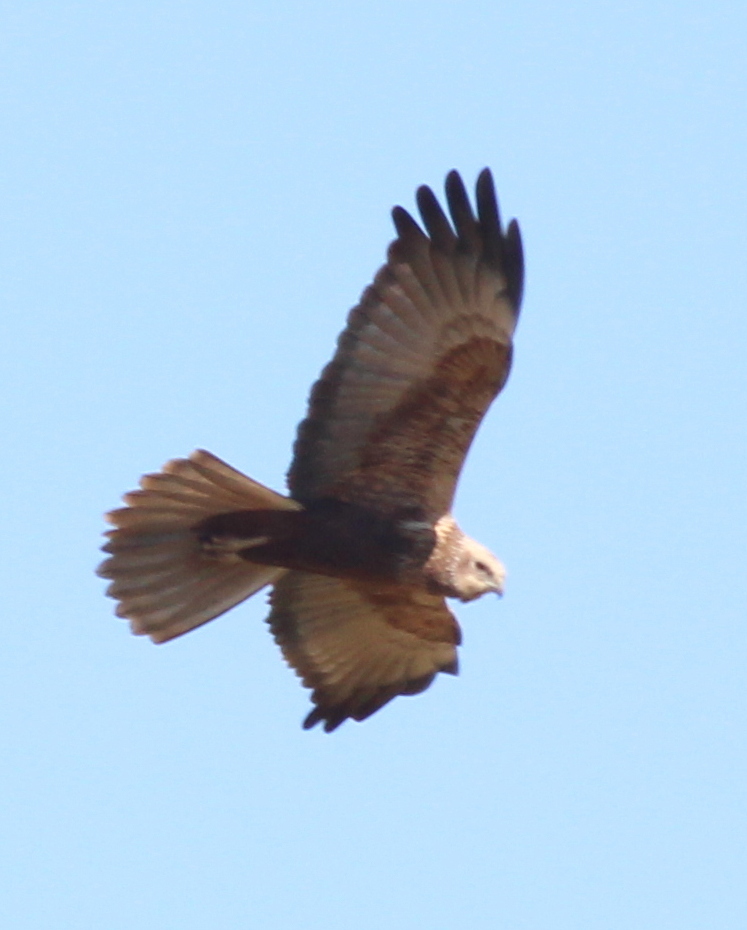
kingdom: Animalia
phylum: Chordata
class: Aves
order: Accipitriformes
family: Accipitridae
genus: Circus
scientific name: Circus aeruginosus
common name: Western marsh harrier
